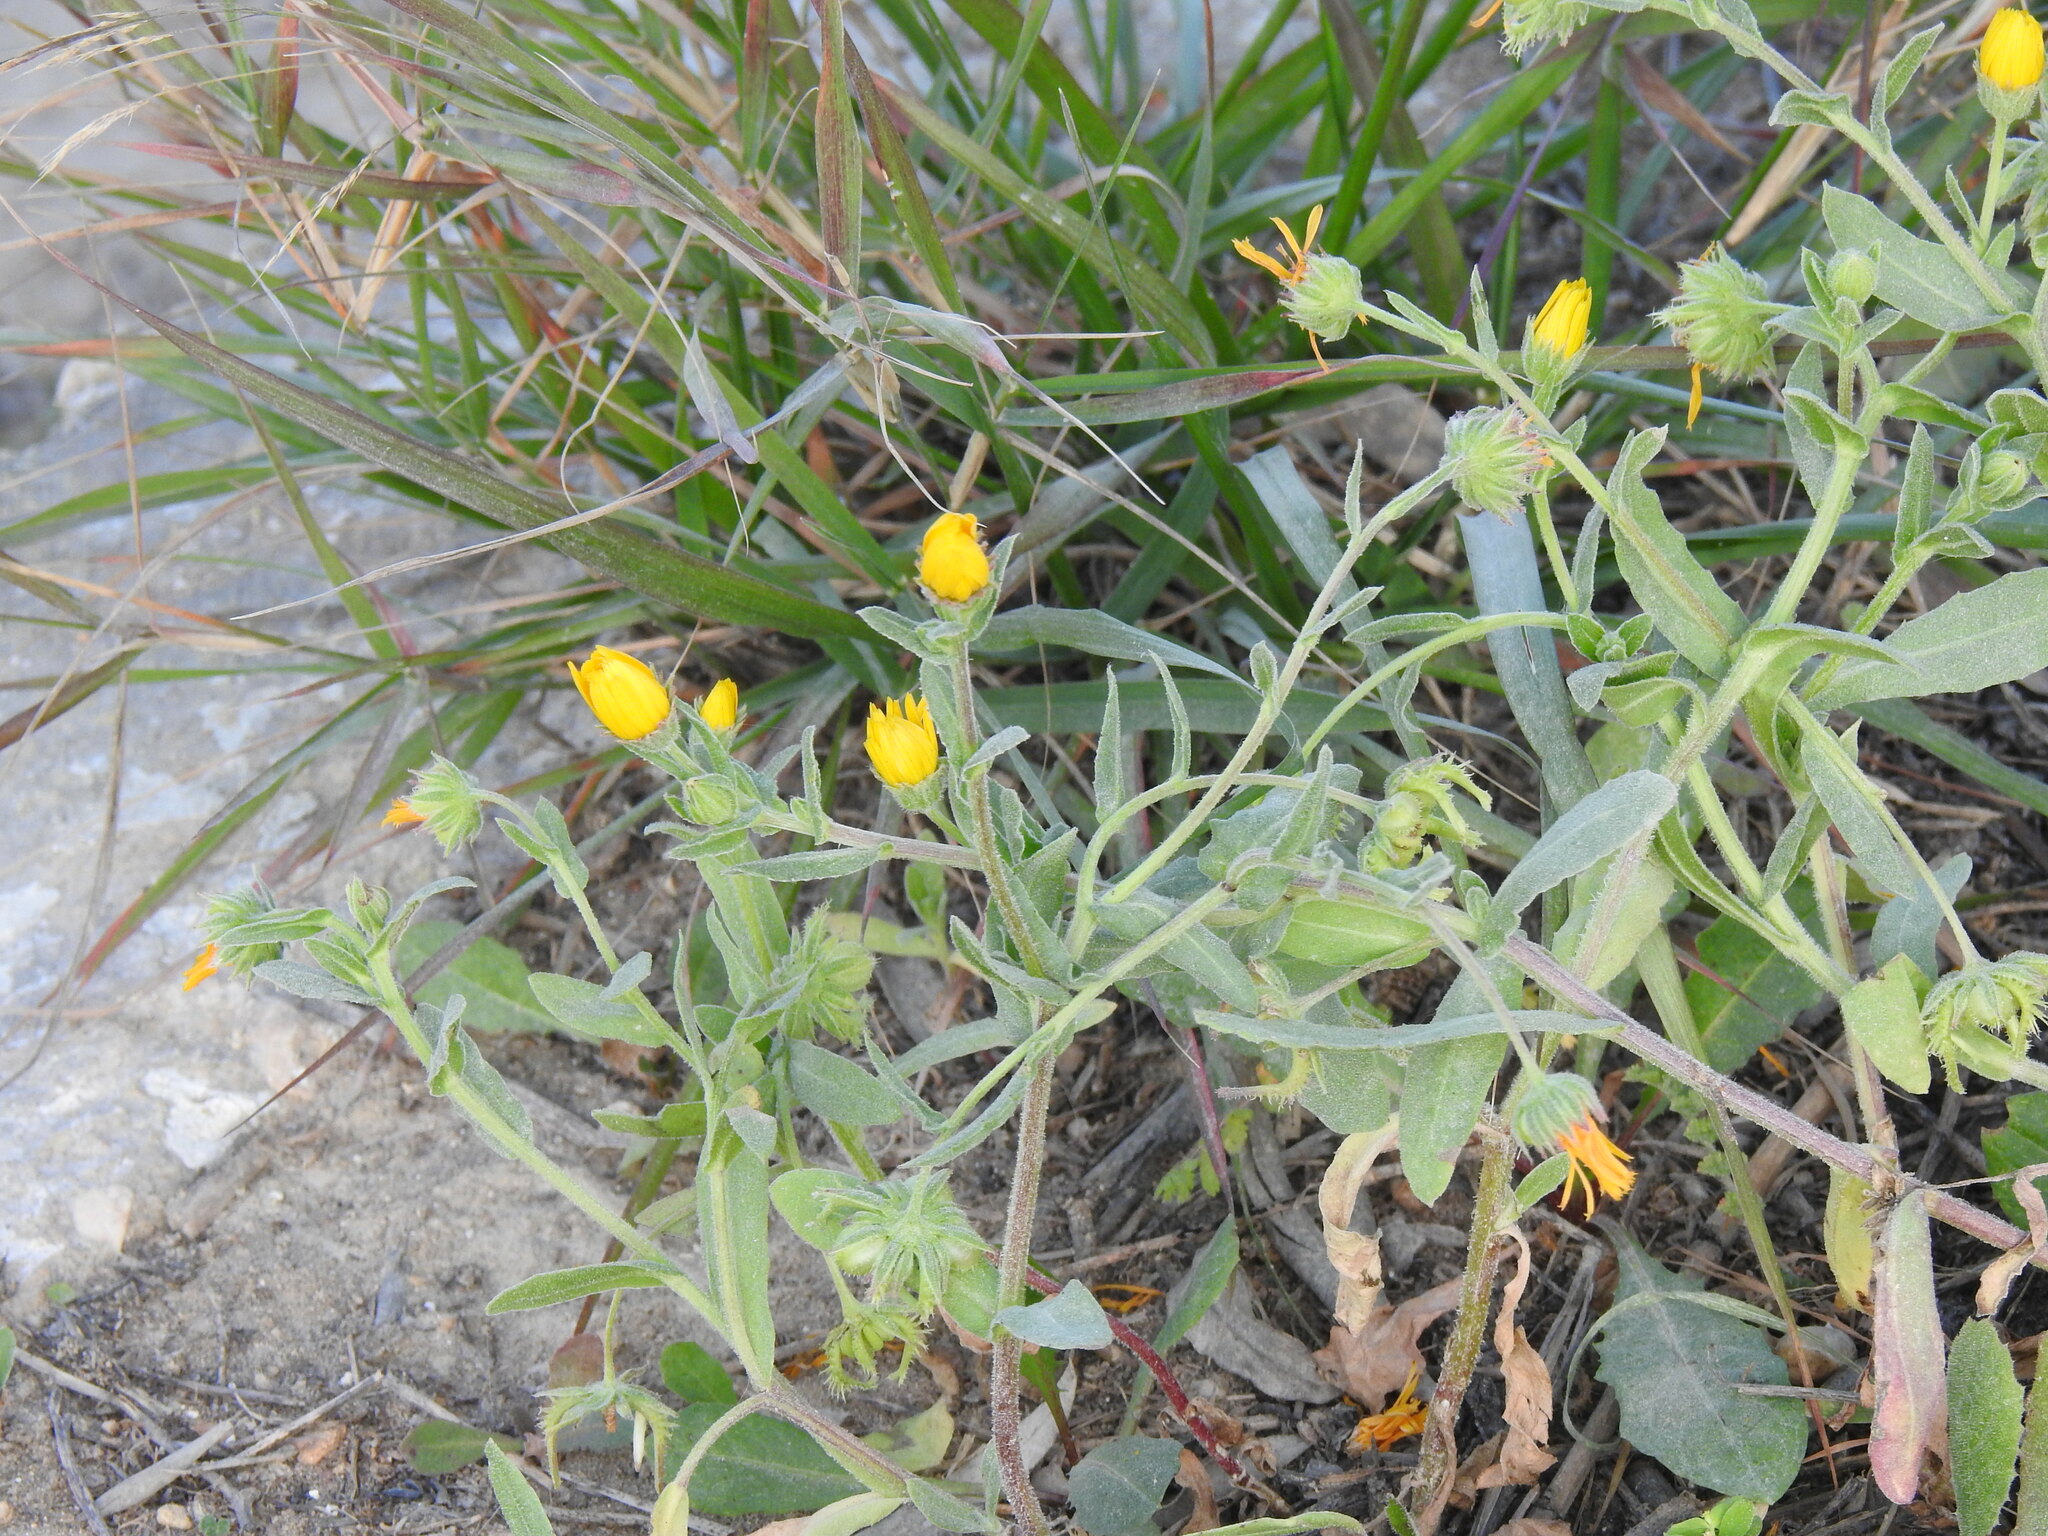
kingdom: Plantae
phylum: Tracheophyta
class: Magnoliopsida
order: Asterales
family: Asteraceae
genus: Calendula
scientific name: Calendula arvensis
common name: Field marigold
